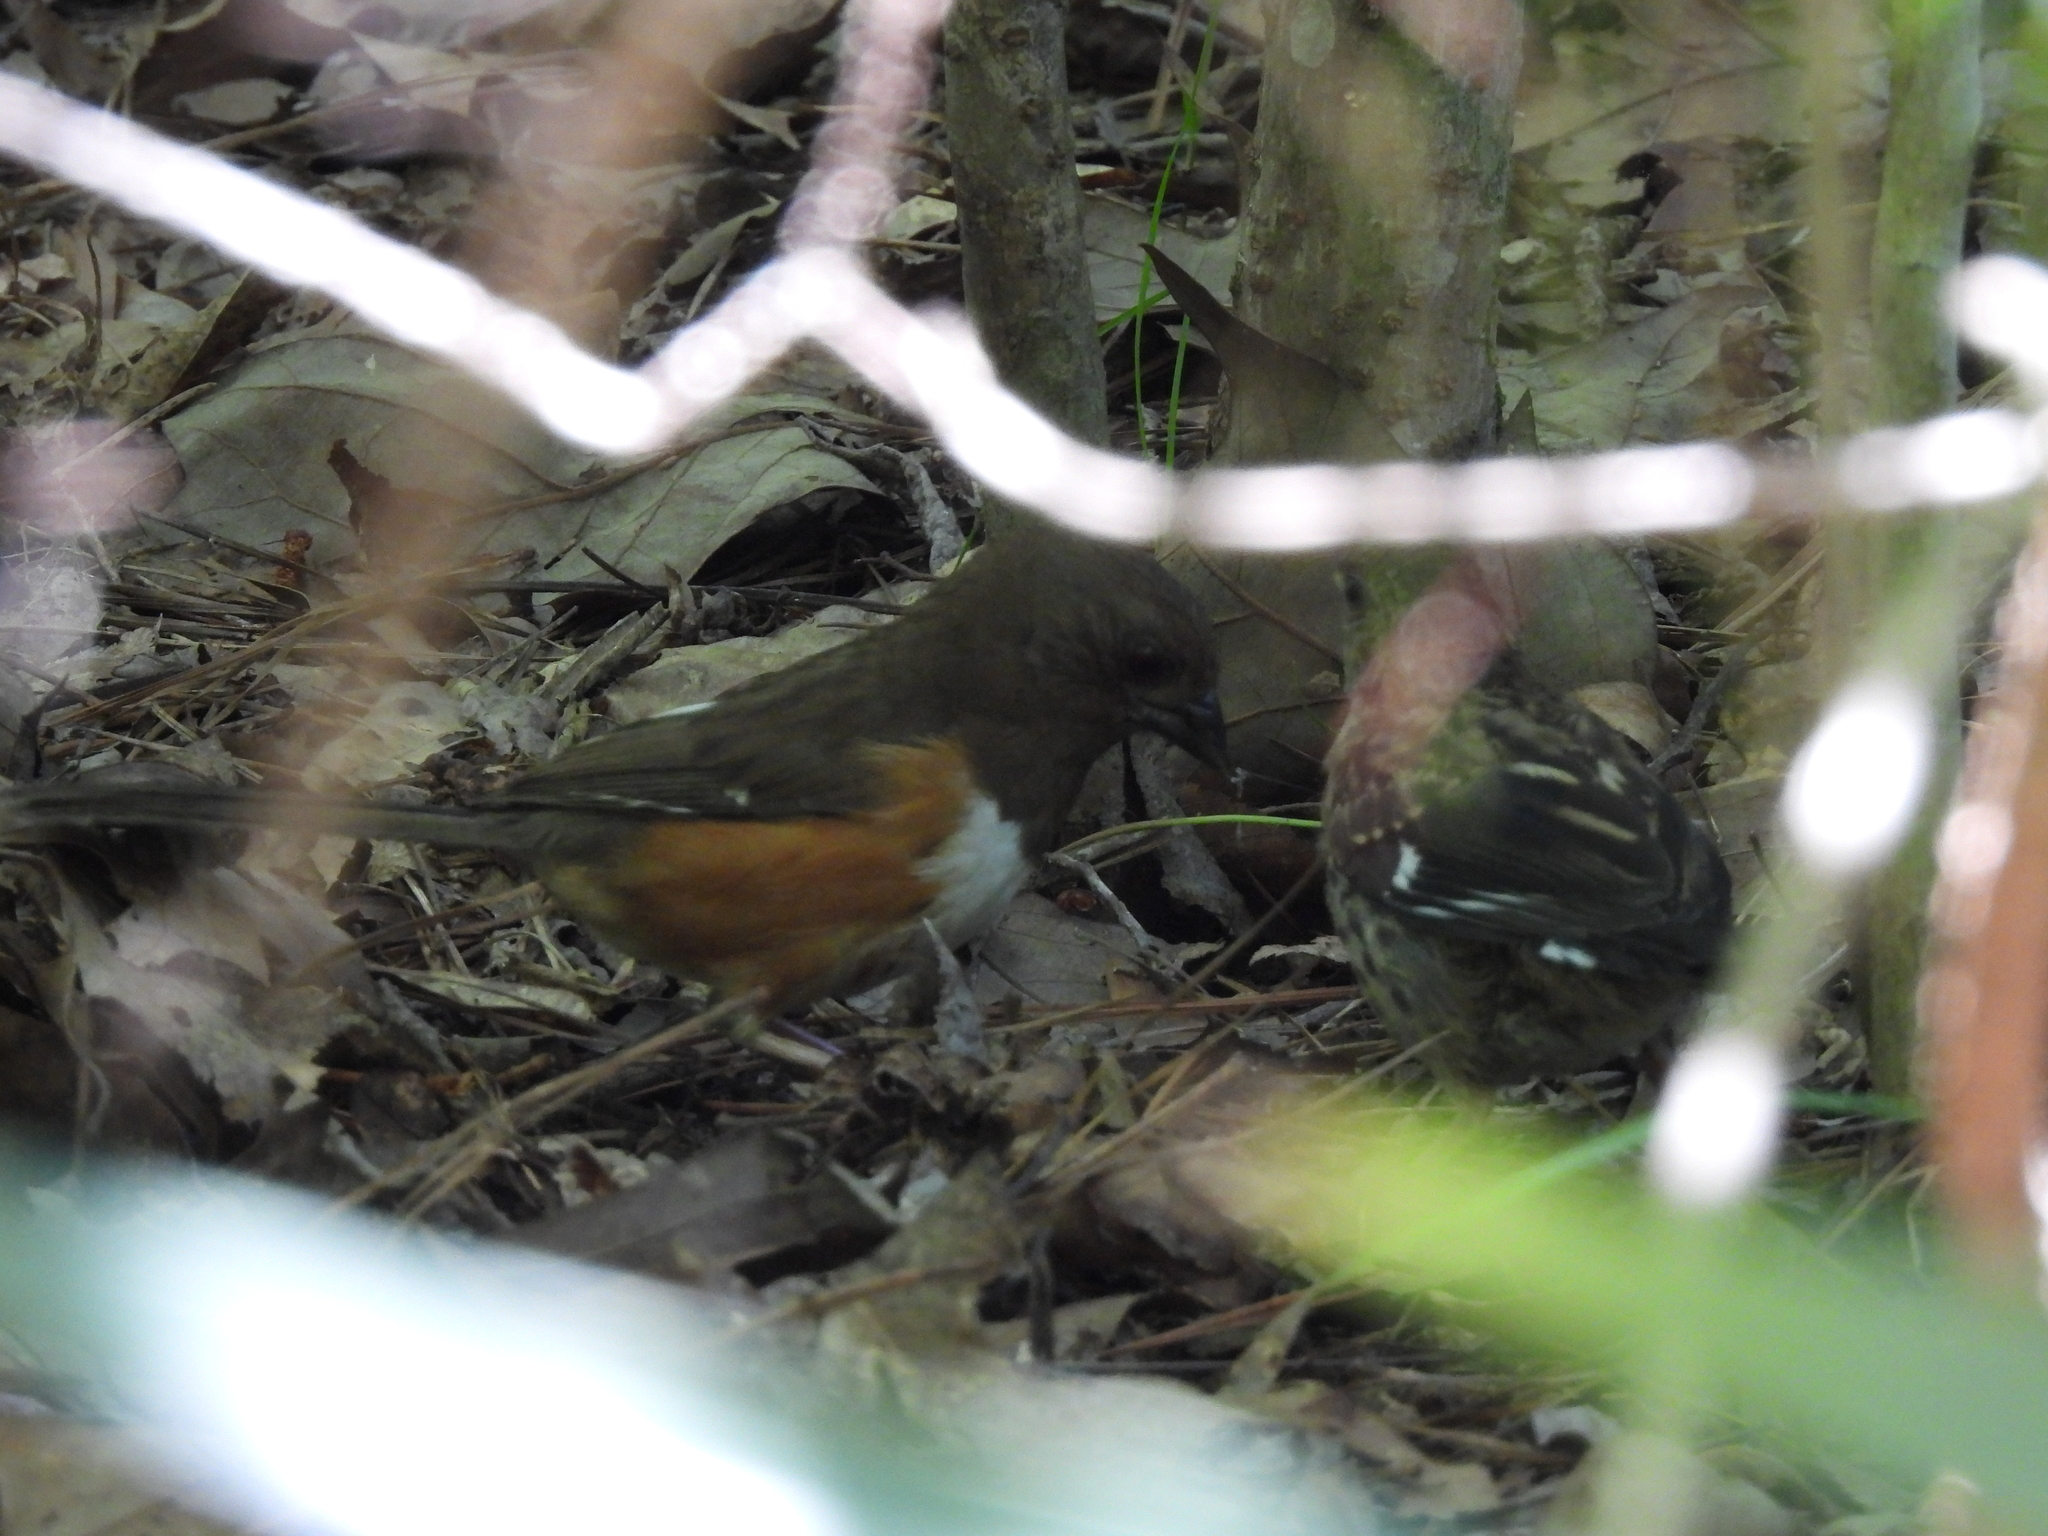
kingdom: Animalia
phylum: Chordata
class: Aves
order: Passeriformes
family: Passerellidae
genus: Pipilo
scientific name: Pipilo erythrophthalmus
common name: Eastern towhee
